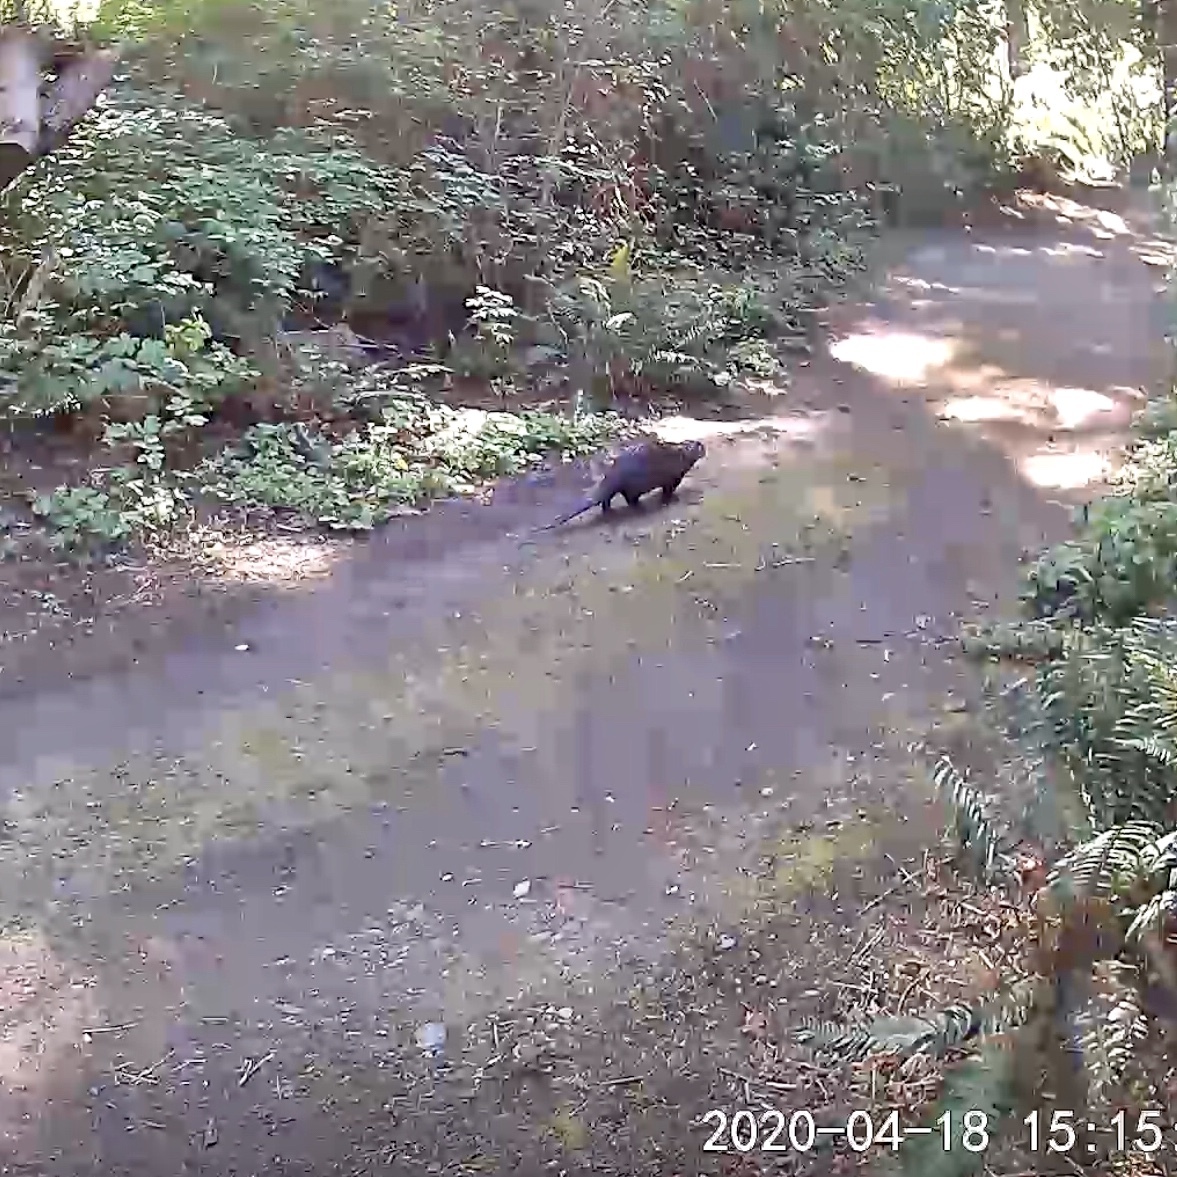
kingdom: Animalia
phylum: Chordata
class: Mammalia
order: Carnivora
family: Mustelidae
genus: Lontra
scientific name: Lontra canadensis
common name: North american river otter
